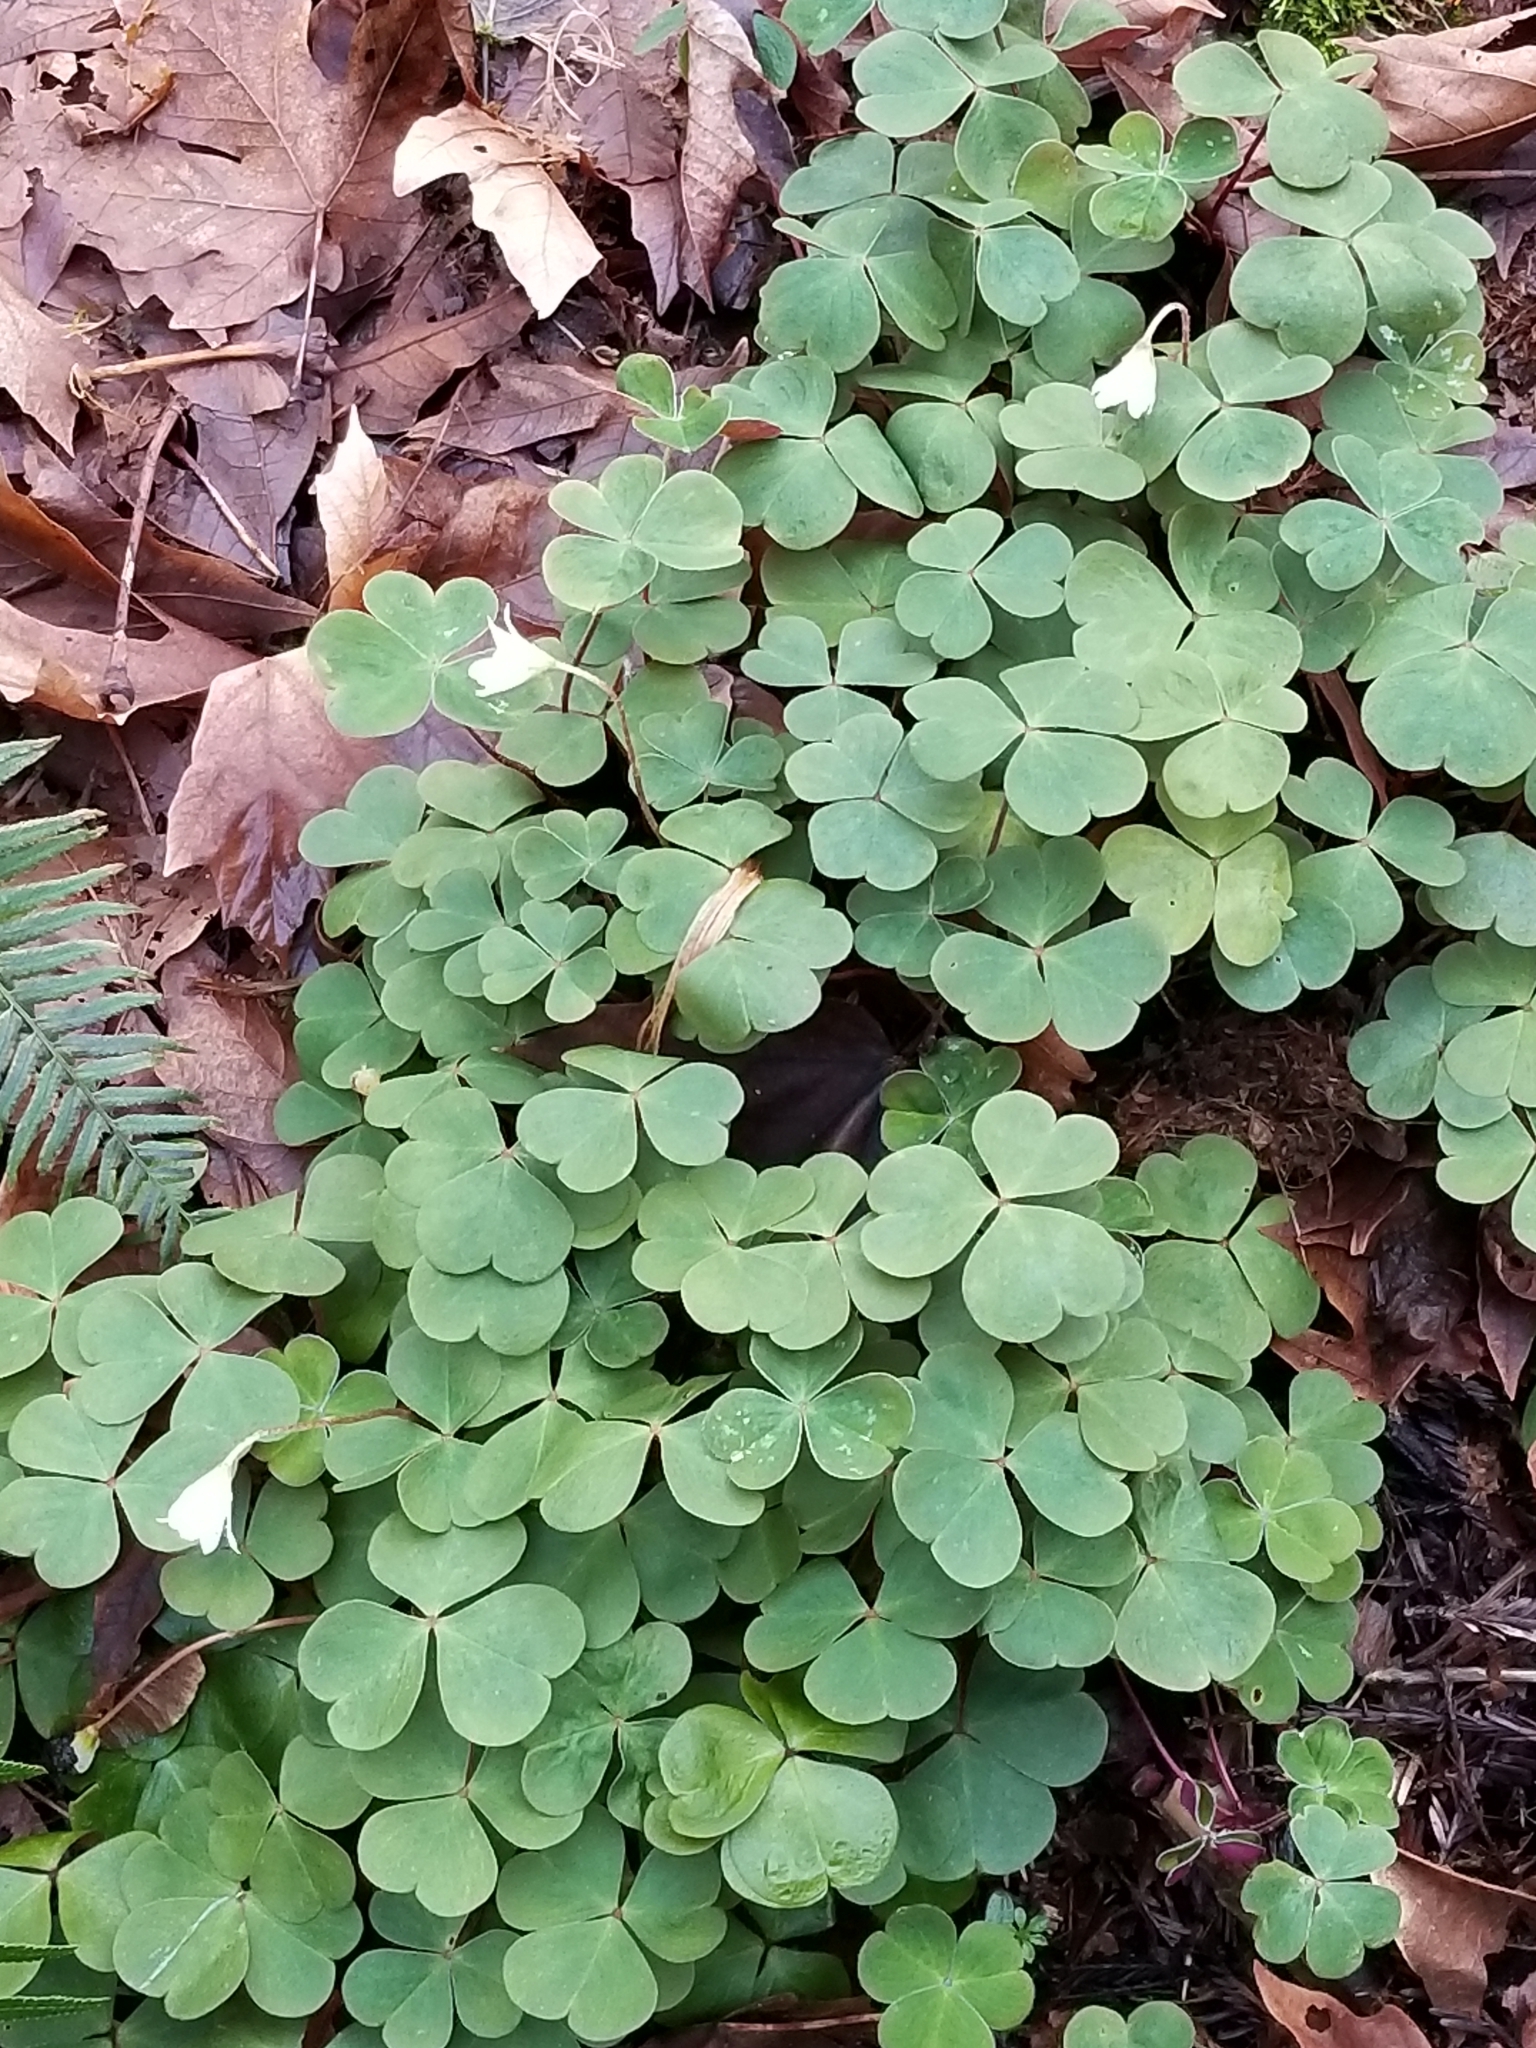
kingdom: Plantae
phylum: Tracheophyta
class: Magnoliopsida
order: Oxalidales
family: Oxalidaceae
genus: Oxalis
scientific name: Oxalis oregana
